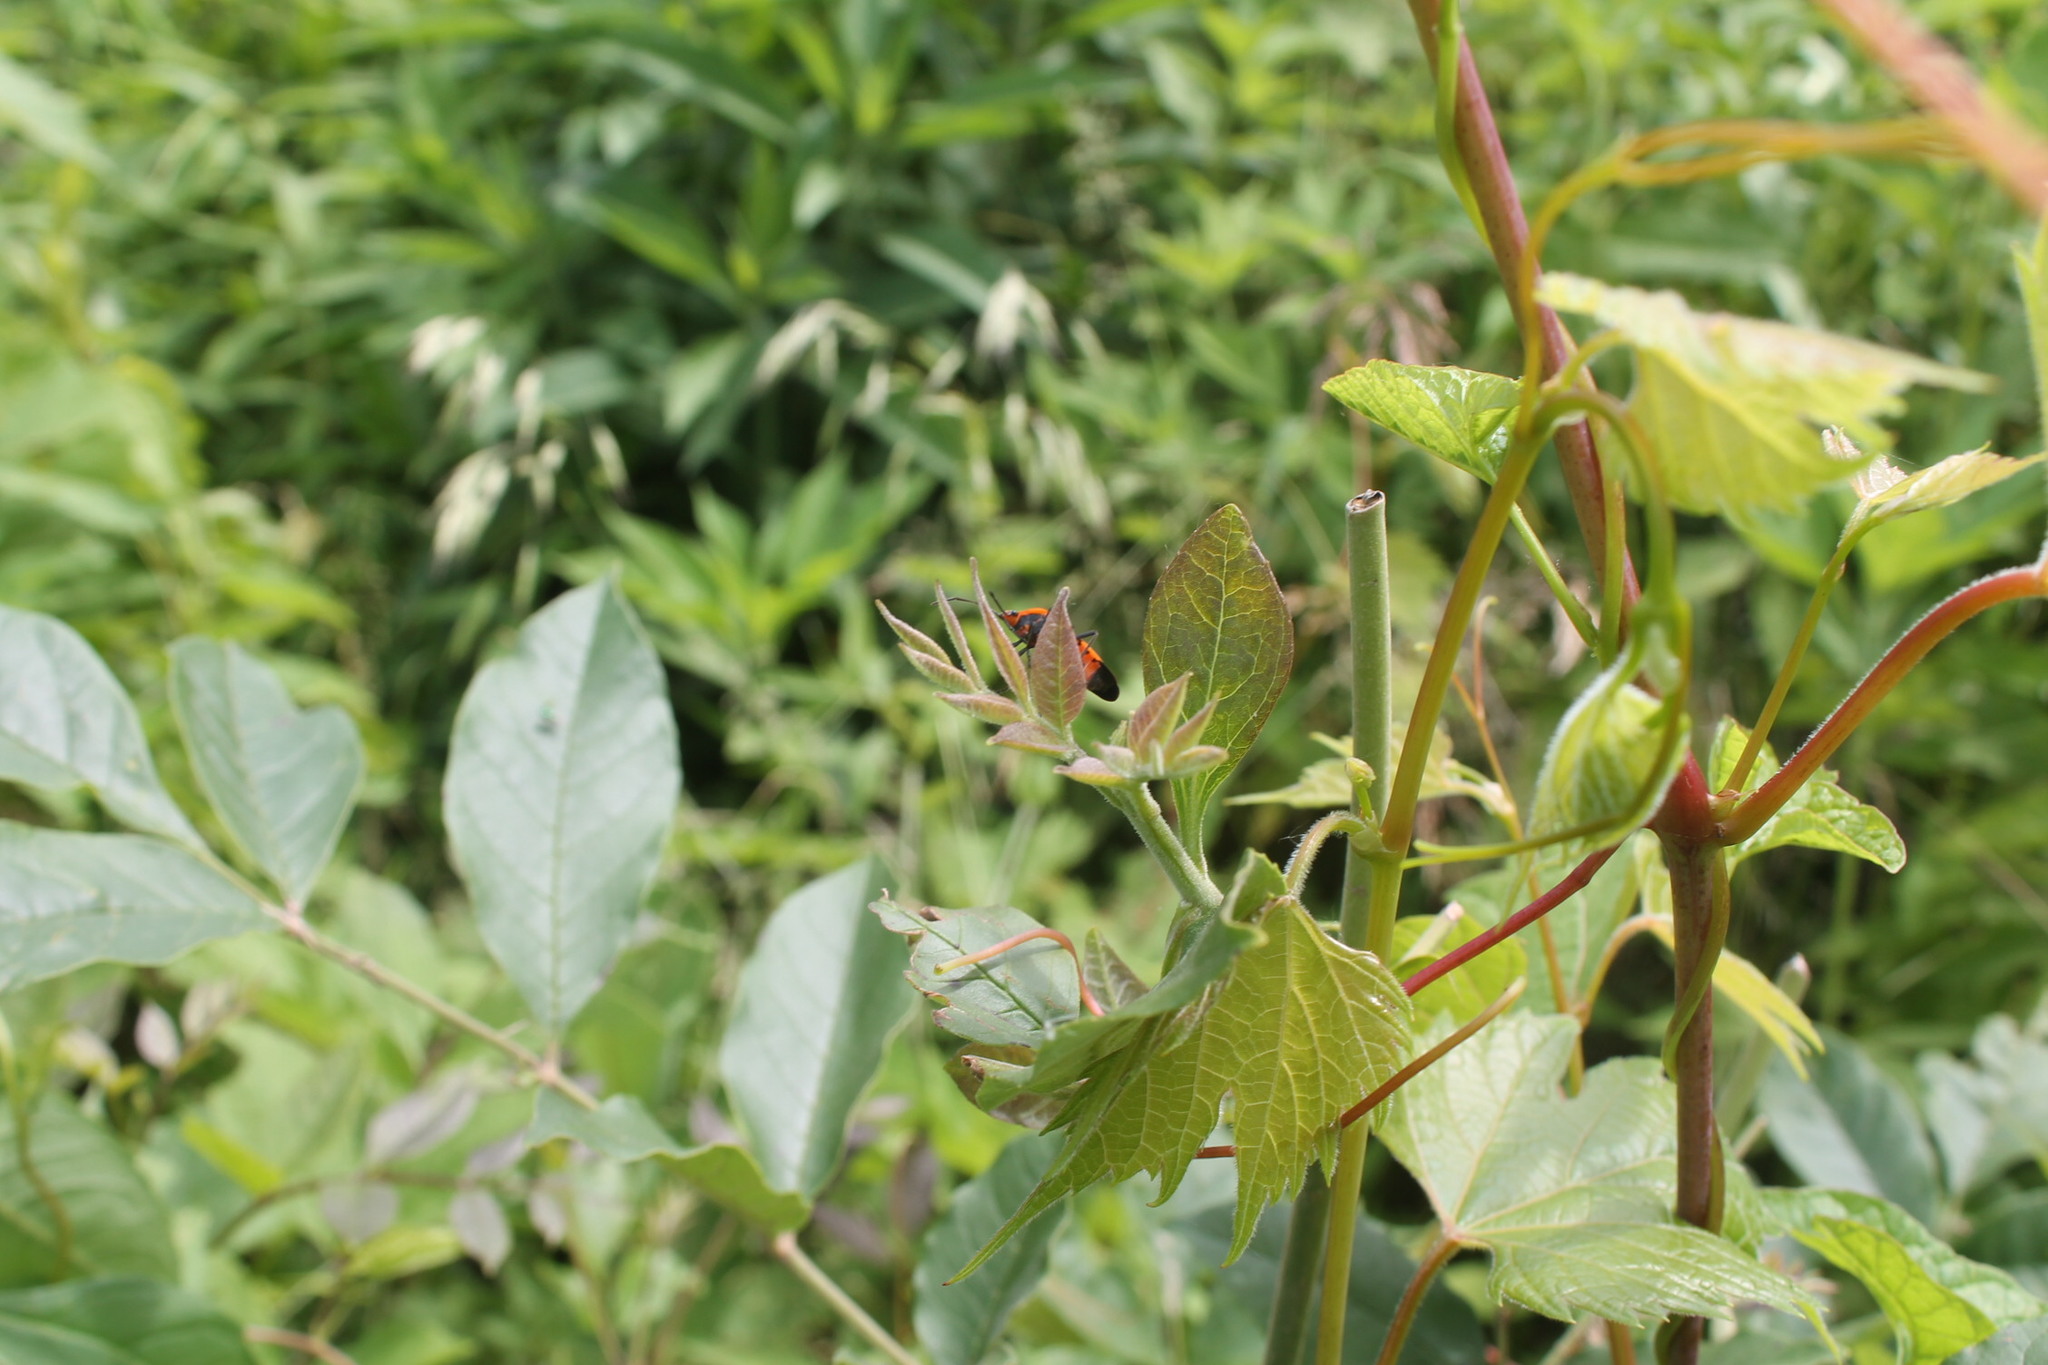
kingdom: Animalia
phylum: Arthropoda
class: Insecta
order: Hemiptera
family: Lygaeidae
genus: Oncopeltus
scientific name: Oncopeltus fasciatus
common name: Large milkweed bug
